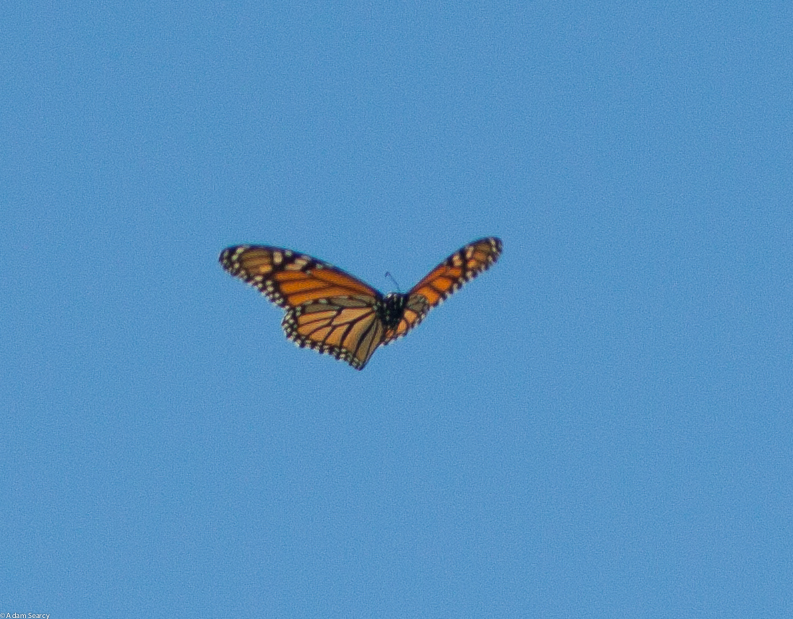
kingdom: Animalia
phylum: Arthropoda
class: Insecta
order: Lepidoptera
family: Nymphalidae
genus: Danaus
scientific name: Danaus plexippus
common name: Monarch
